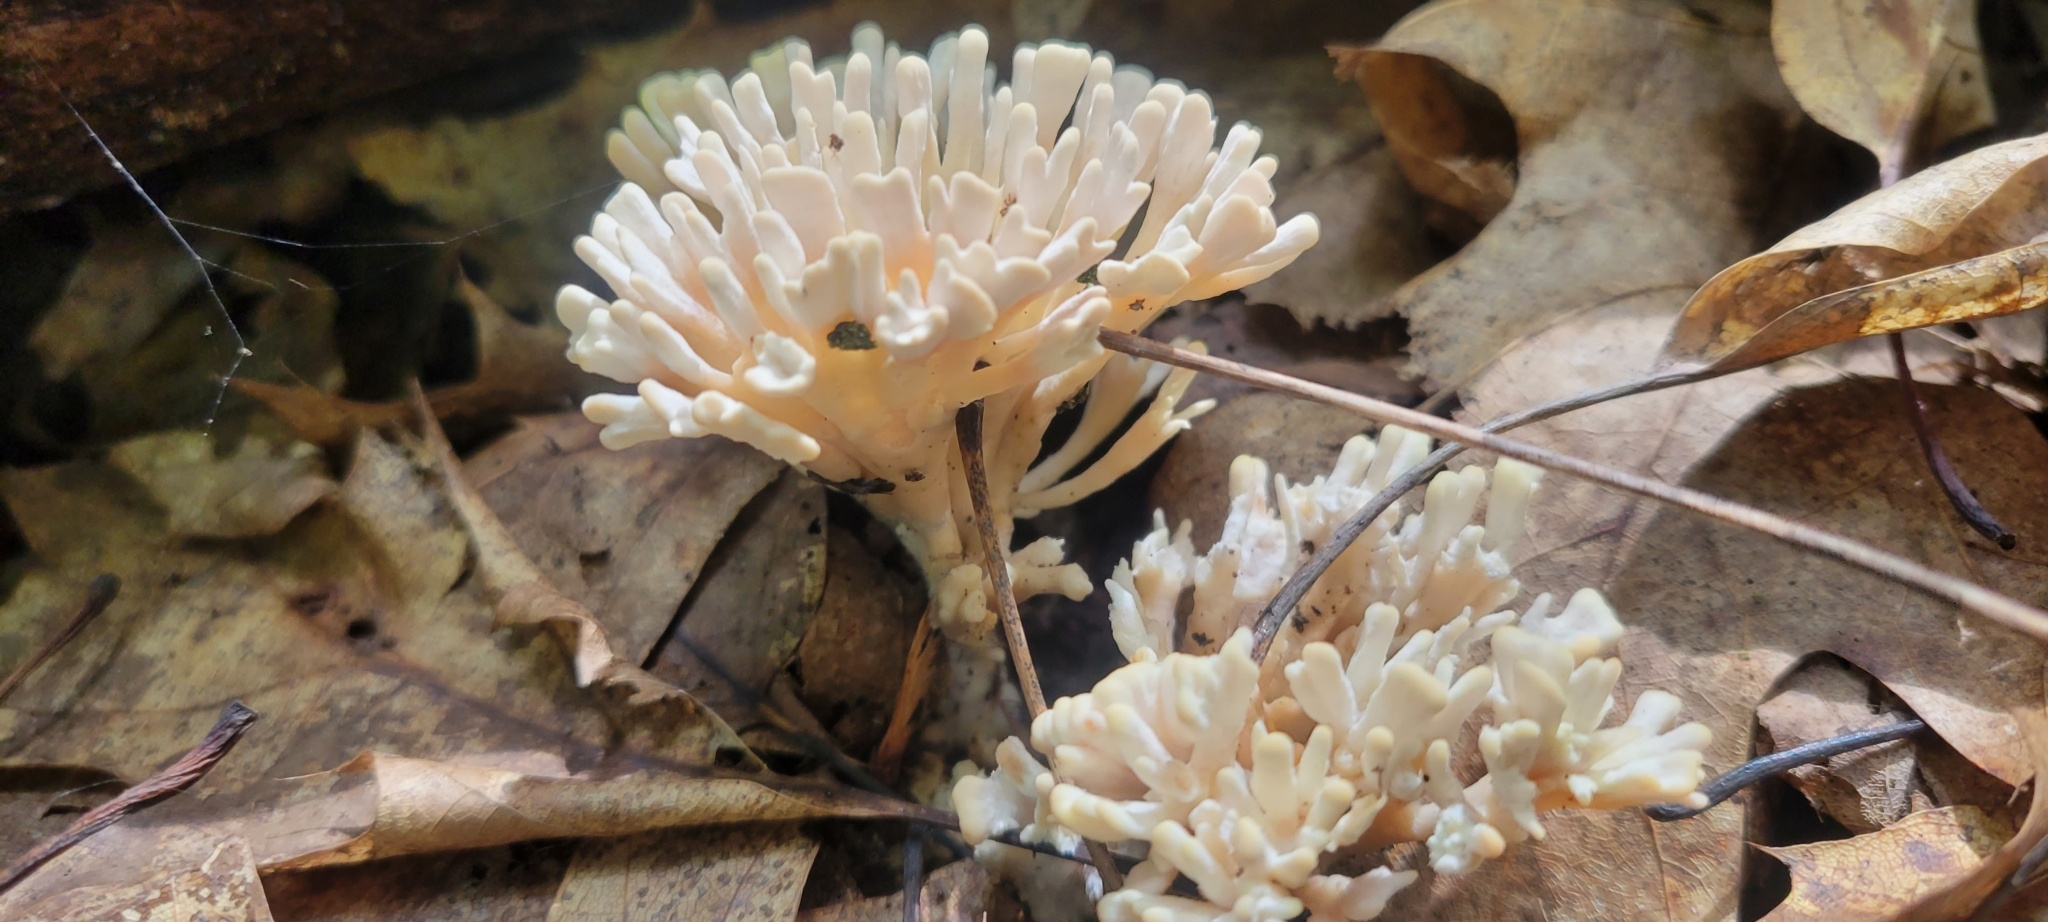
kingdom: Fungi
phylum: Basidiomycota
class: Agaricomycetes
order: Sebacinales
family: Sebacinaceae
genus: Sebacina
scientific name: Sebacina schweinitzii
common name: Jellied false coral fungus
